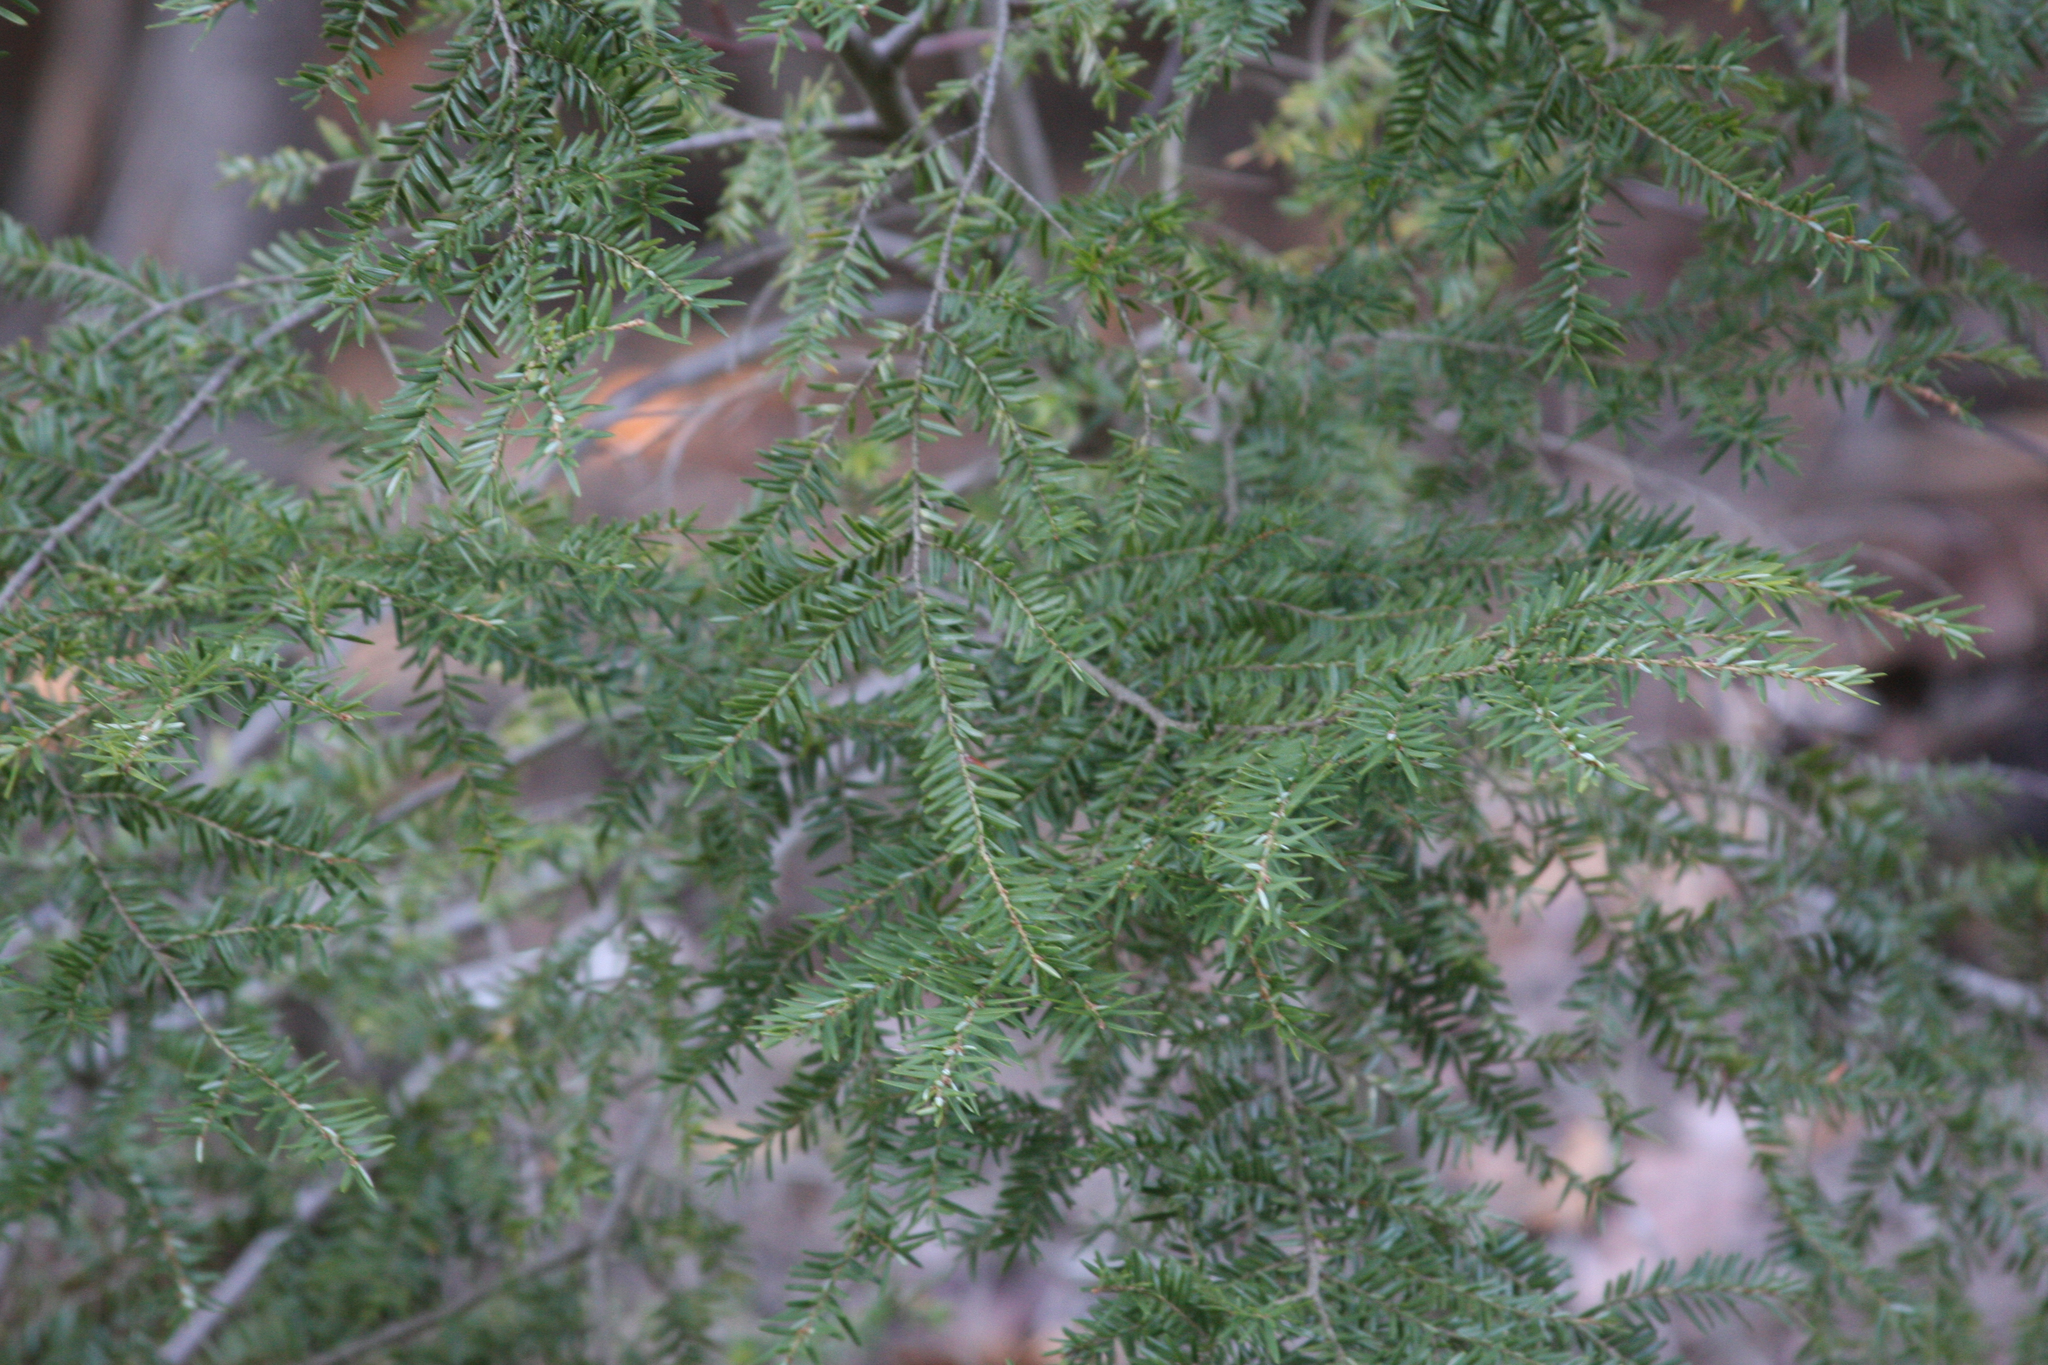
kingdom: Plantae
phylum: Tracheophyta
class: Pinopsida
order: Pinales
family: Pinaceae
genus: Tsuga
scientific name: Tsuga canadensis
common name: Eastern hemlock
